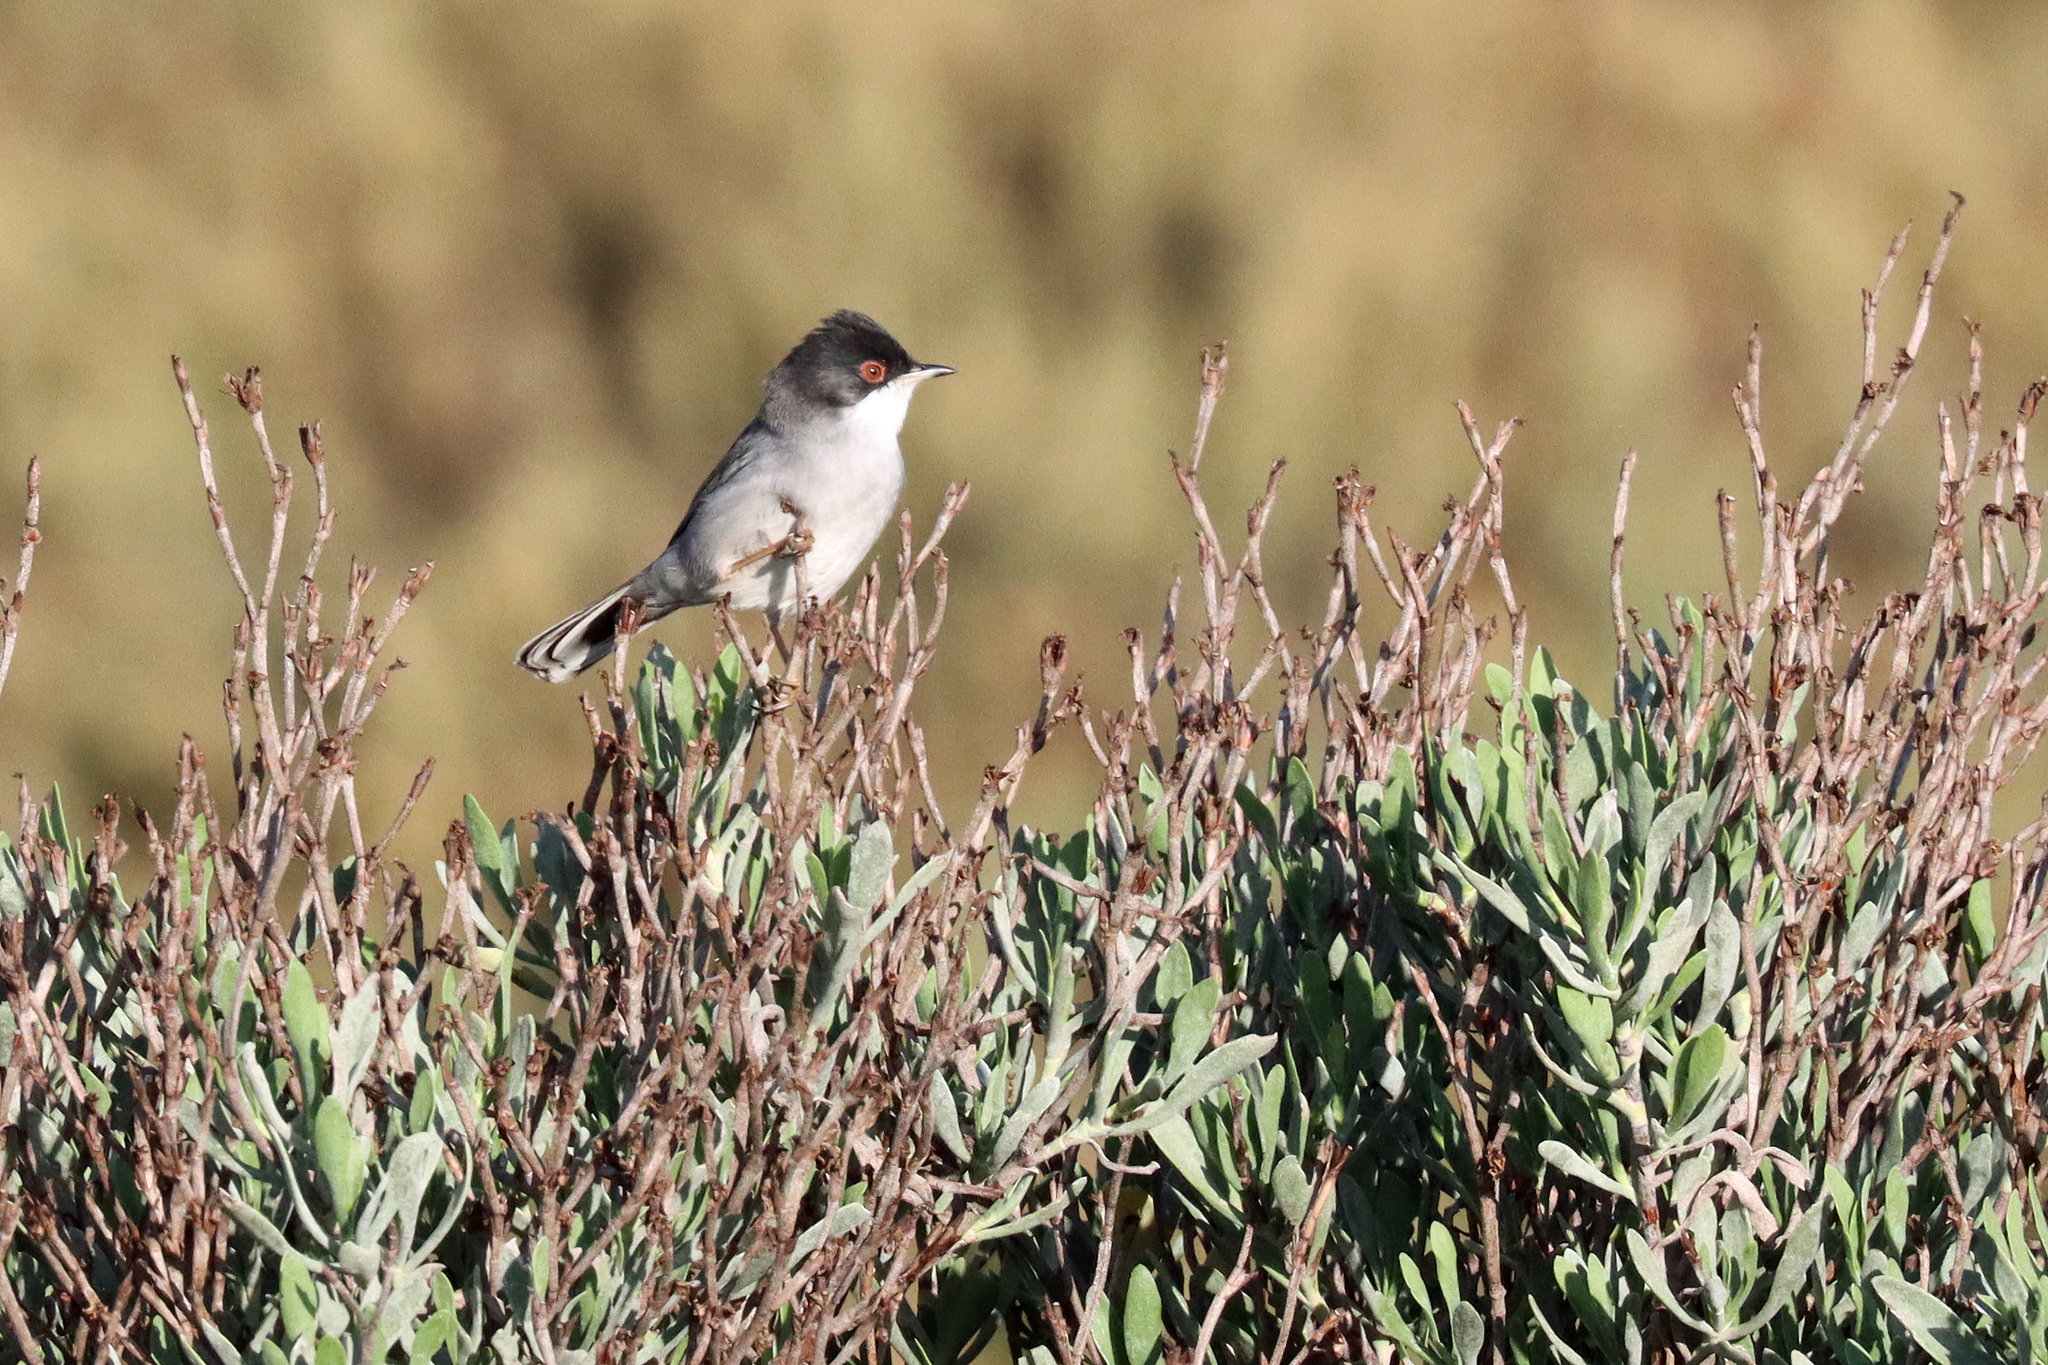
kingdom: Animalia
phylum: Chordata
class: Aves
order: Passeriformes
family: Sylviidae
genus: Curruca
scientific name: Curruca melanocephala
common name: Sardinian warbler
